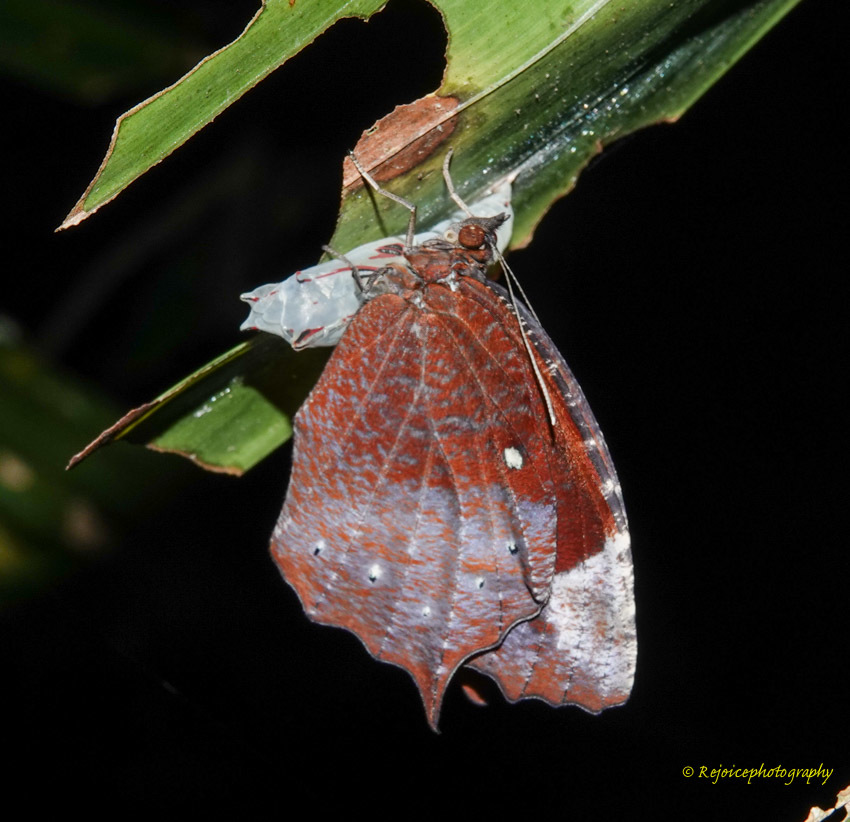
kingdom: Animalia
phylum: Arthropoda
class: Insecta
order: Lepidoptera
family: Nymphalidae
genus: Elymnias
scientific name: Elymnias hypermnestra
